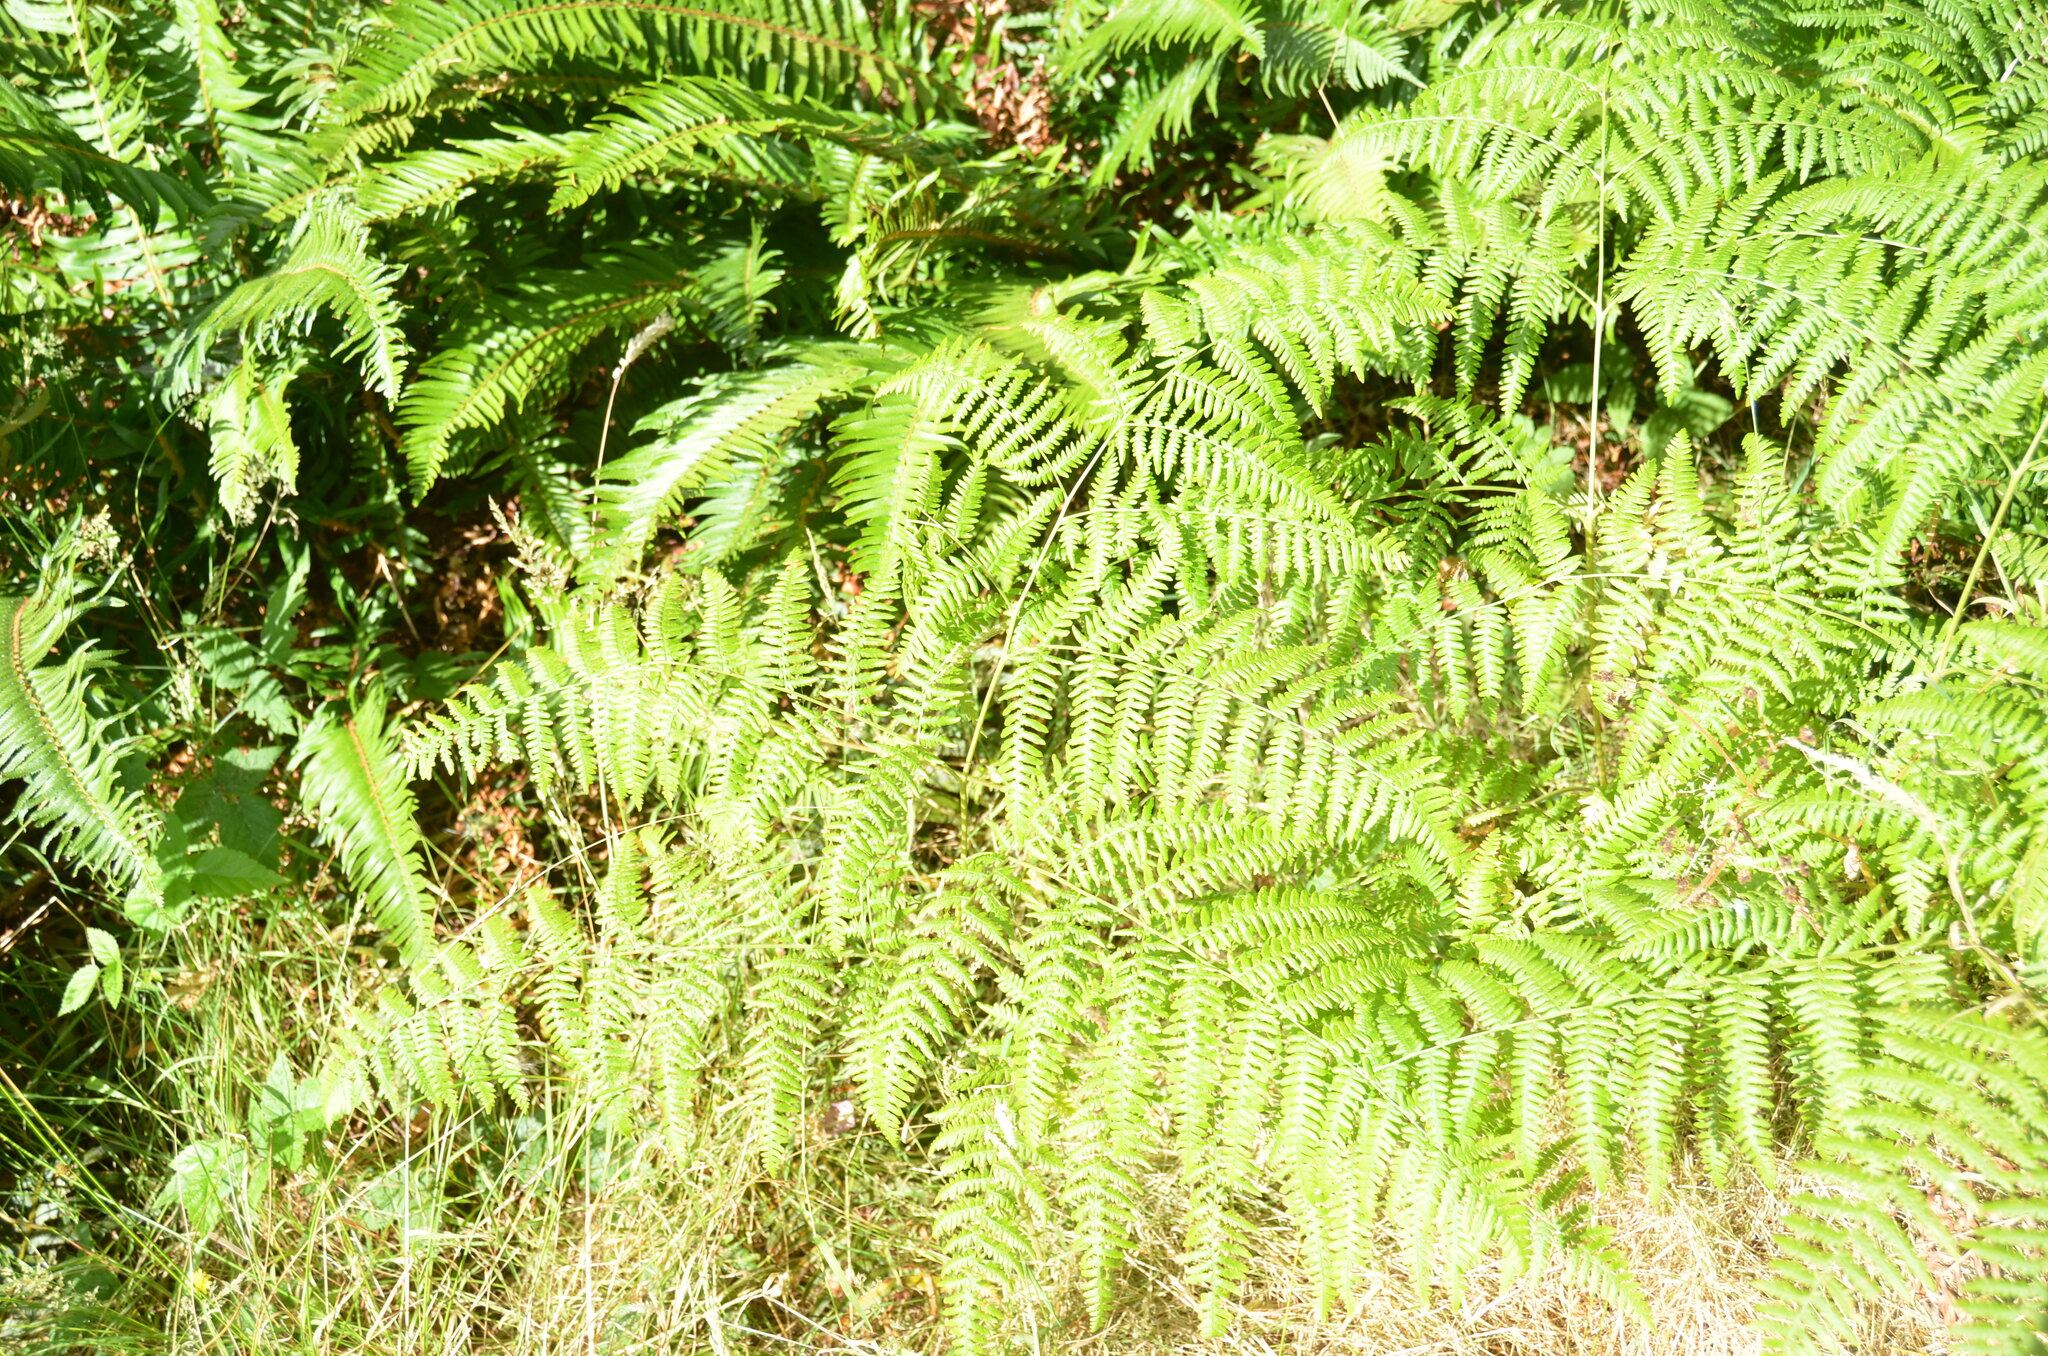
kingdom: Plantae
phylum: Tracheophyta
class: Polypodiopsida
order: Polypodiales
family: Dennstaedtiaceae
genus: Pteridium
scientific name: Pteridium aquilinum
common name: Bracken
